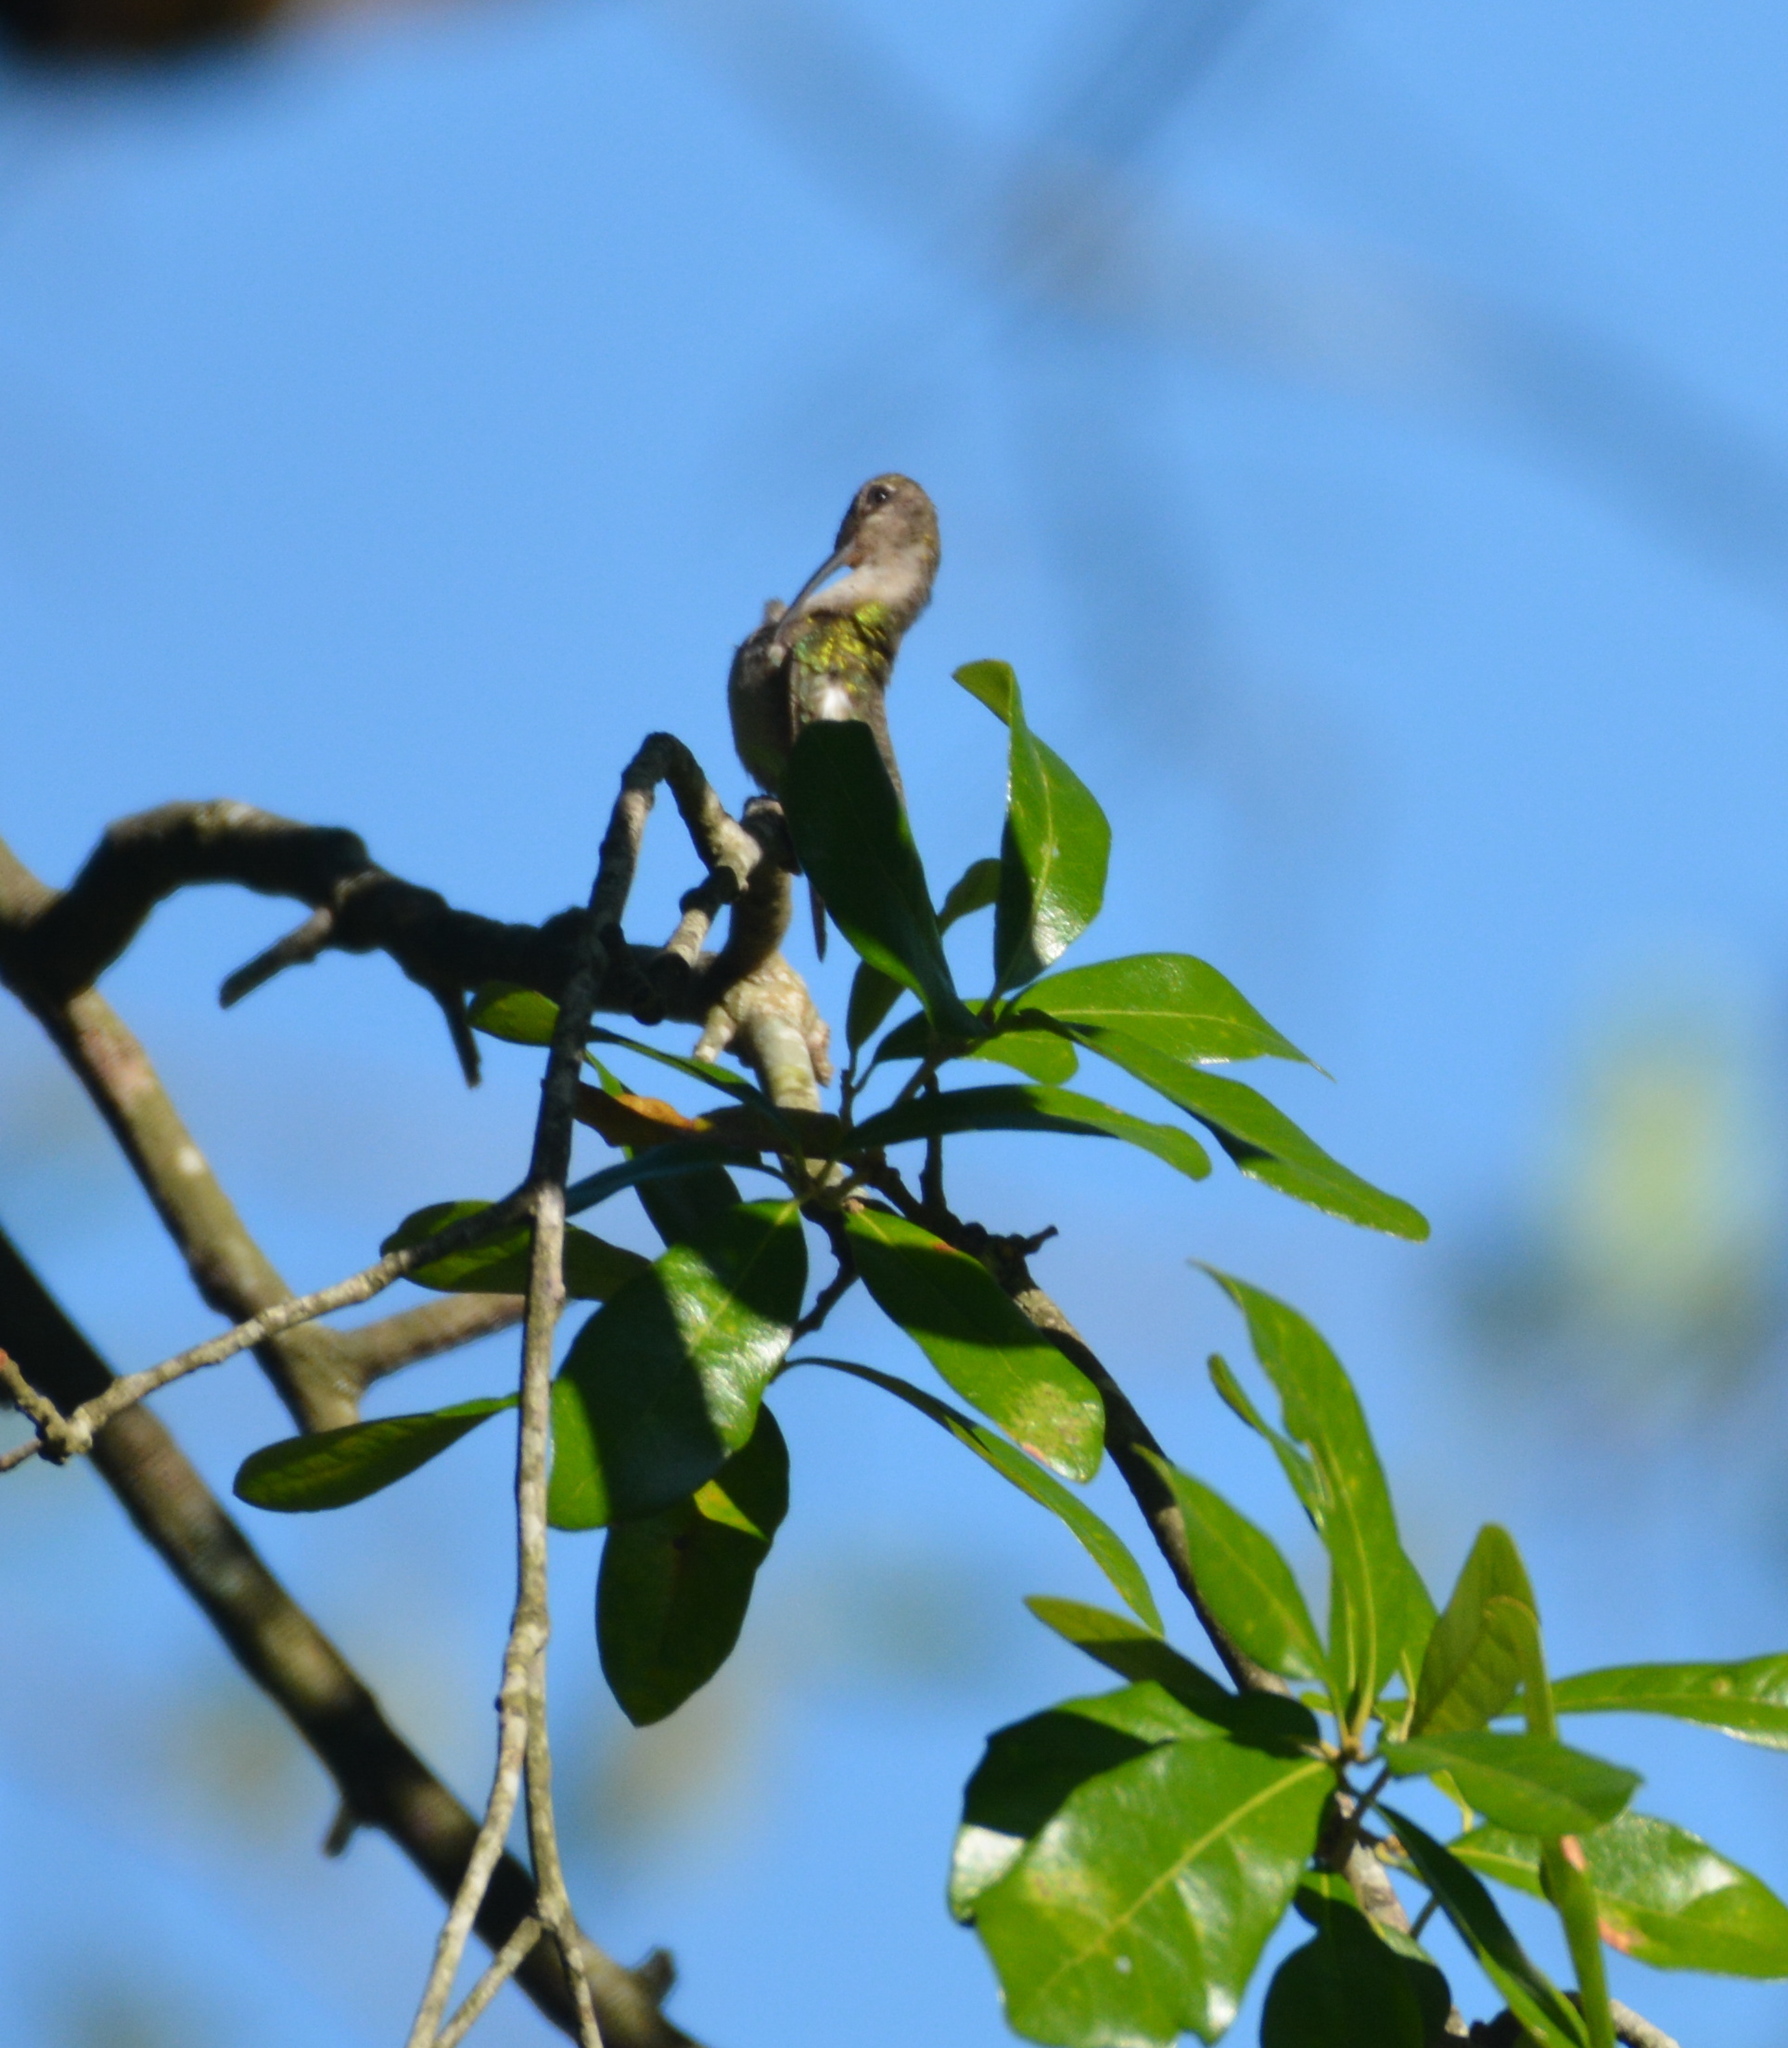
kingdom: Animalia
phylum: Chordata
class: Aves
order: Apodiformes
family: Trochilidae
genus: Archilochus
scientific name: Archilochus colubris
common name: Ruby-throated hummingbird
